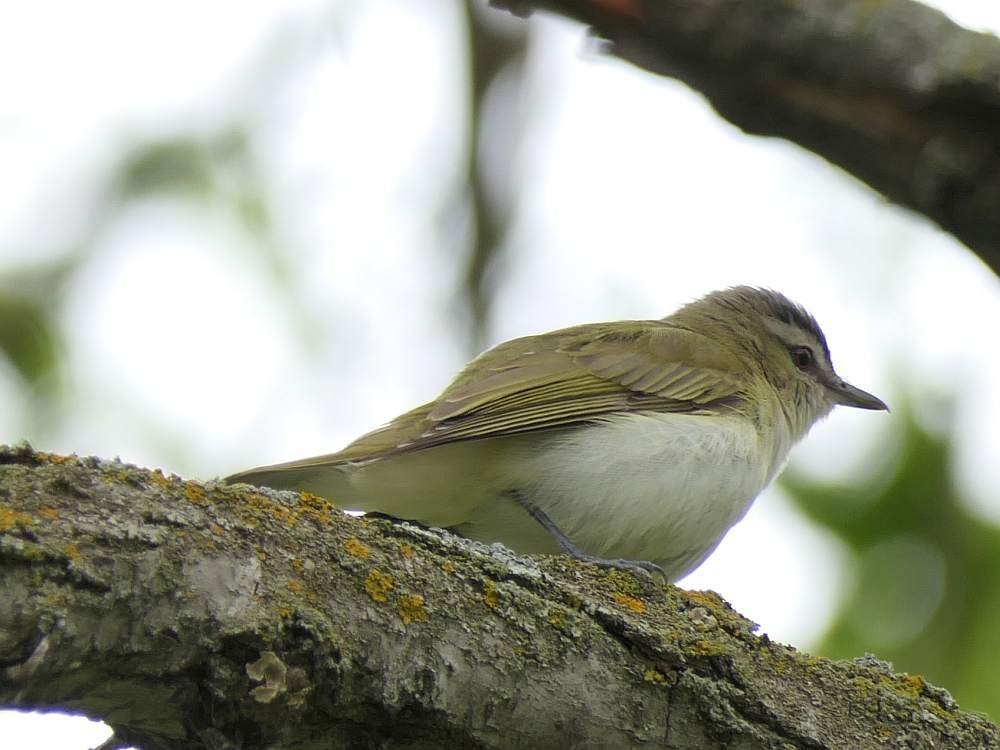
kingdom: Animalia
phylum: Chordata
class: Aves
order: Passeriformes
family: Vireonidae
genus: Vireo
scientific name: Vireo olivaceus
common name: Red-eyed vireo
